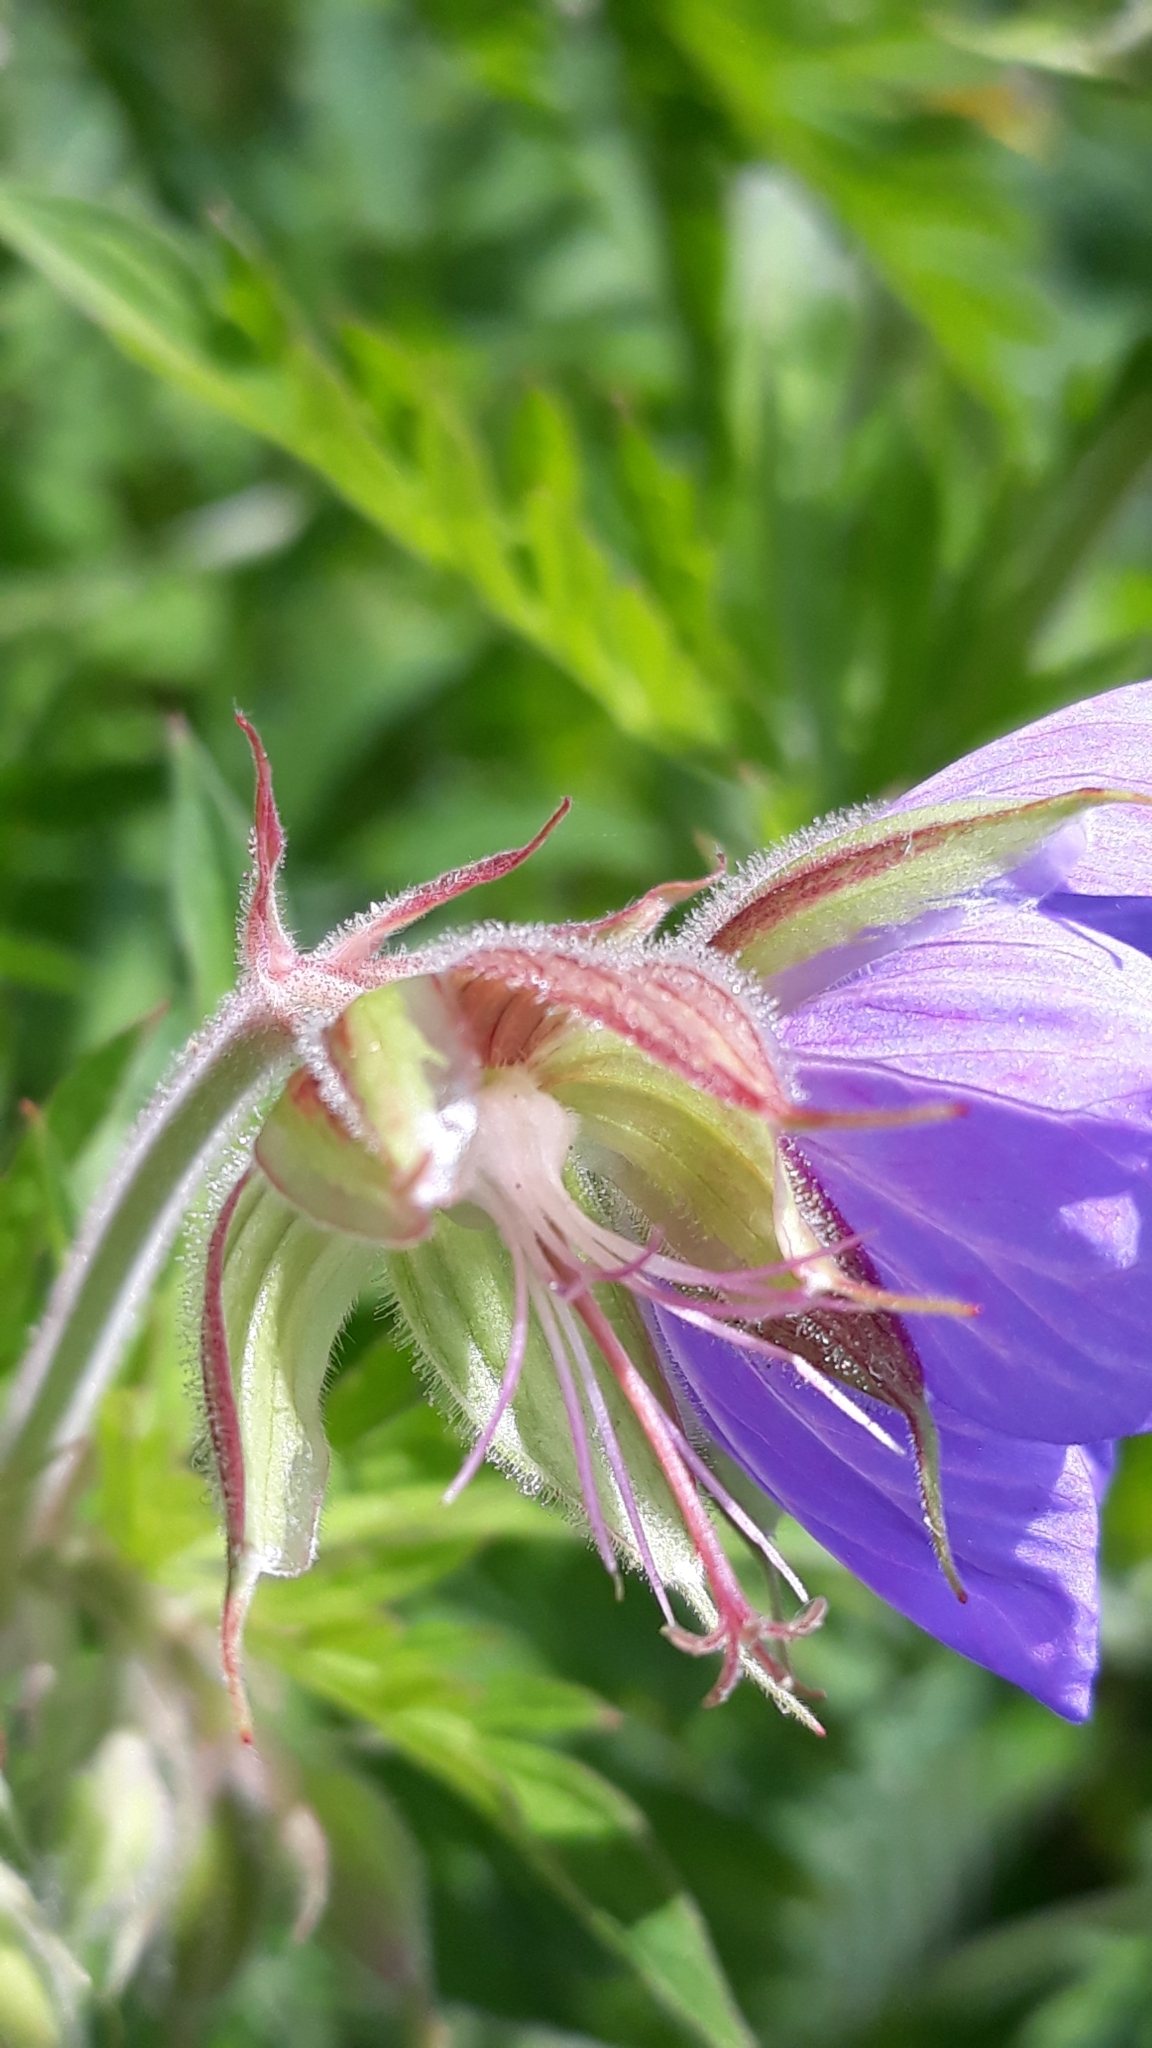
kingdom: Plantae
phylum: Tracheophyta
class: Magnoliopsida
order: Geraniales
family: Geraniaceae
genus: Geranium
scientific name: Geranium pratense
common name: Meadow crane's-bill
